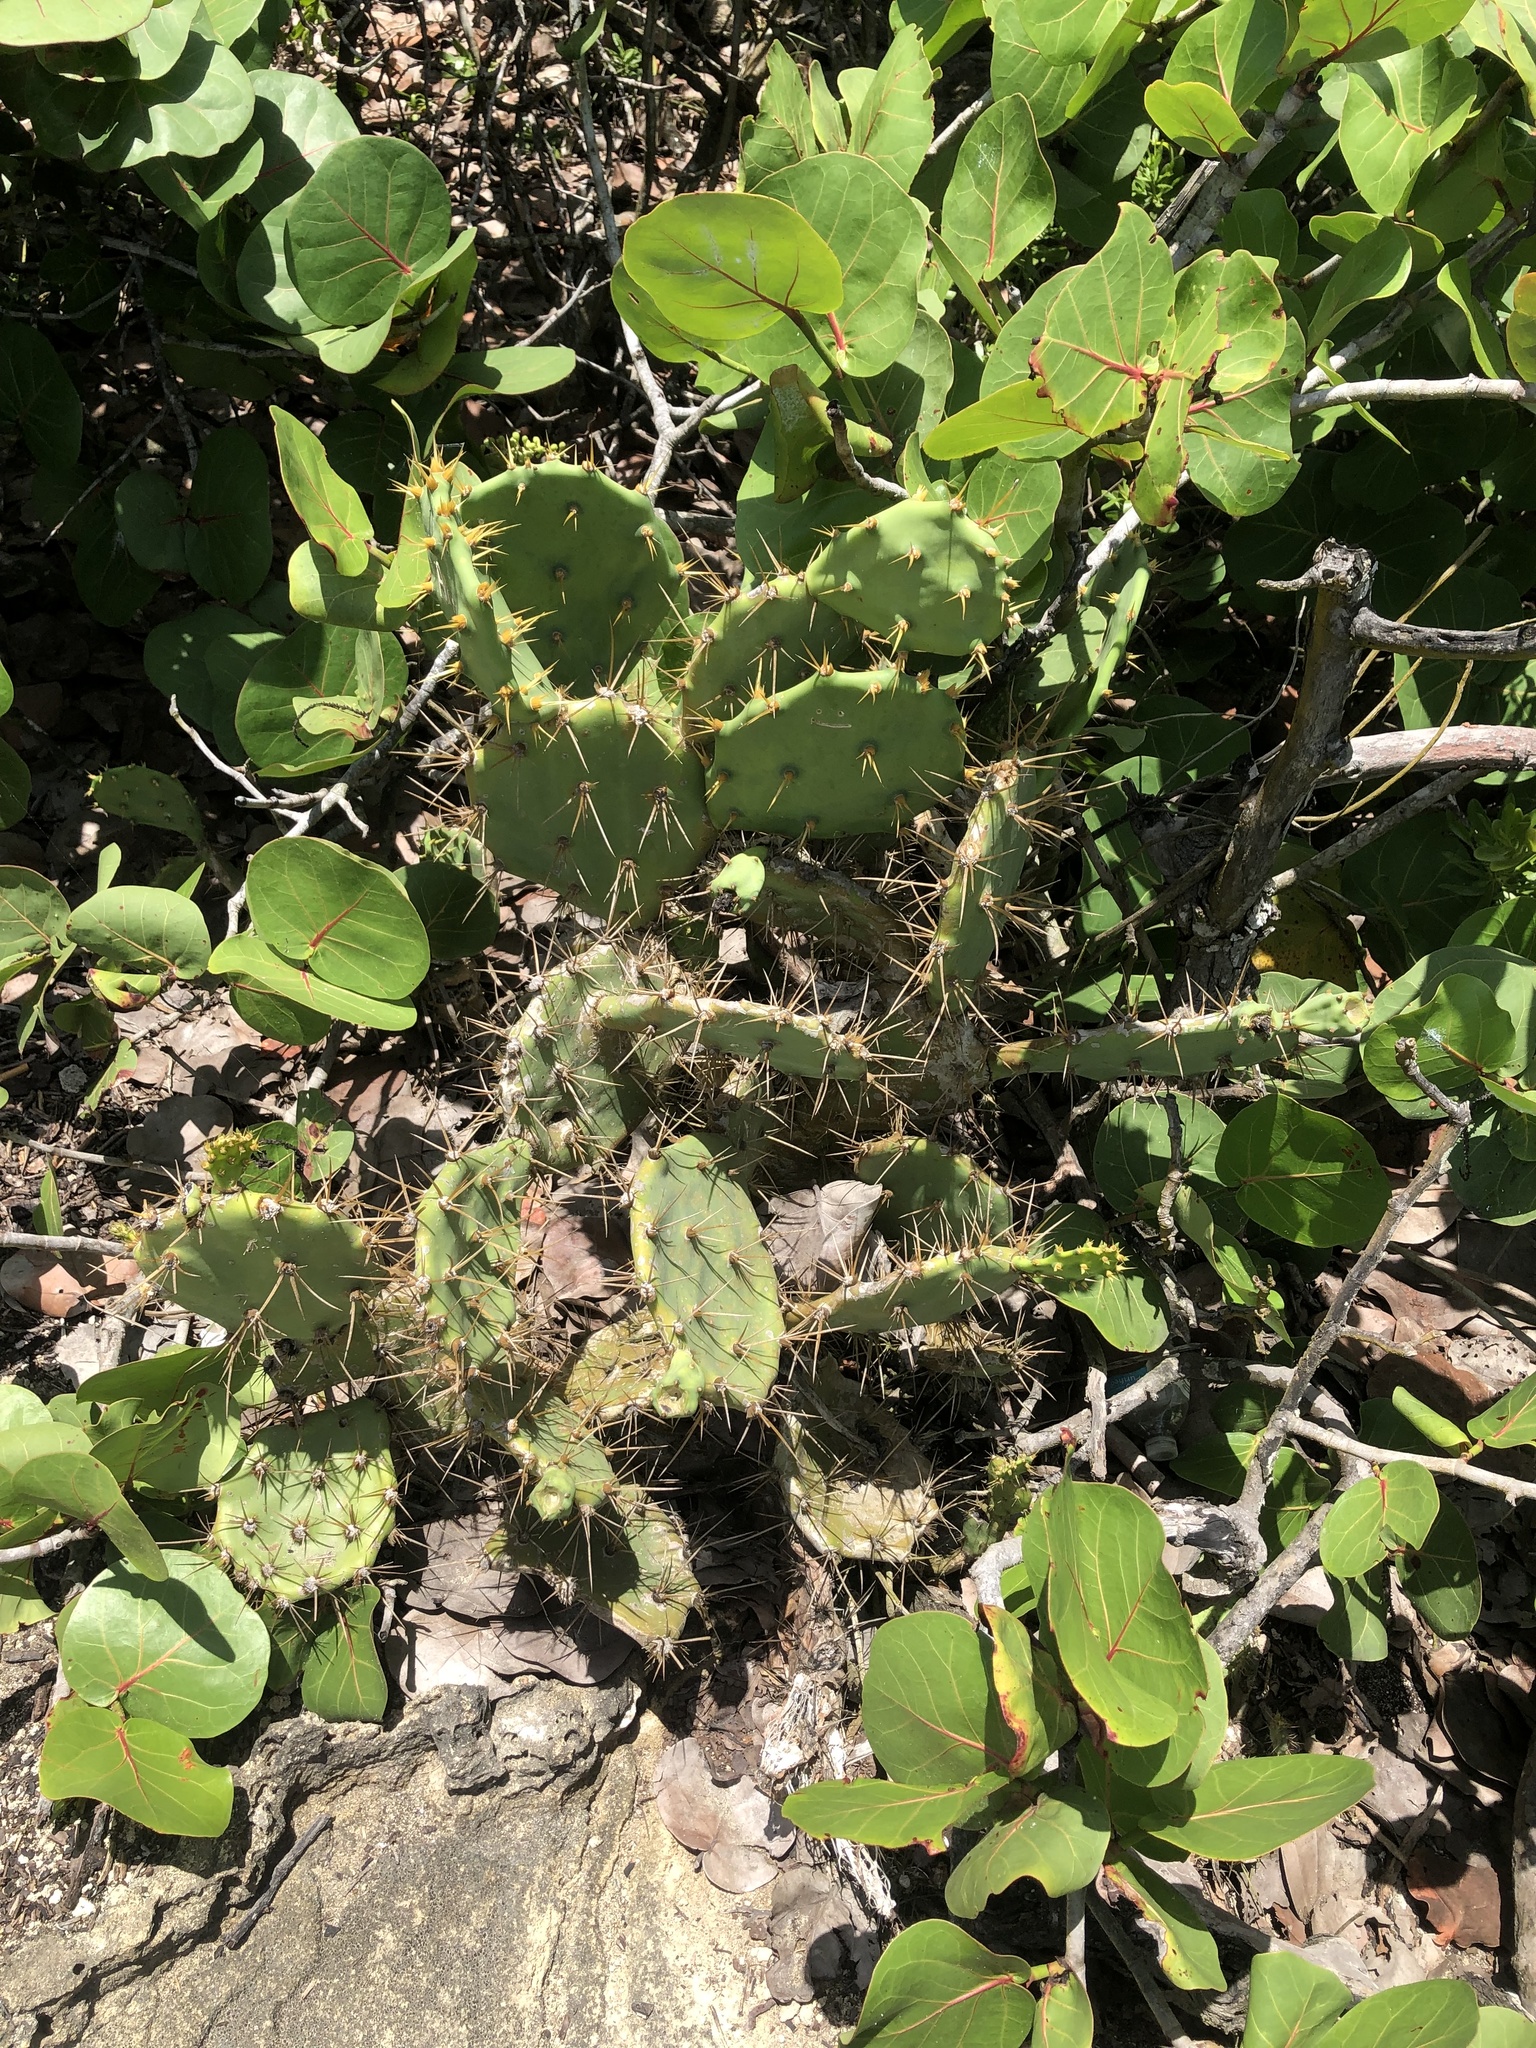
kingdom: Plantae
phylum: Tracheophyta
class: Magnoliopsida
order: Caryophyllales
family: Cactaceae
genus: Opuntia
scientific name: Opuntia stricta
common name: Erect pricklypear
